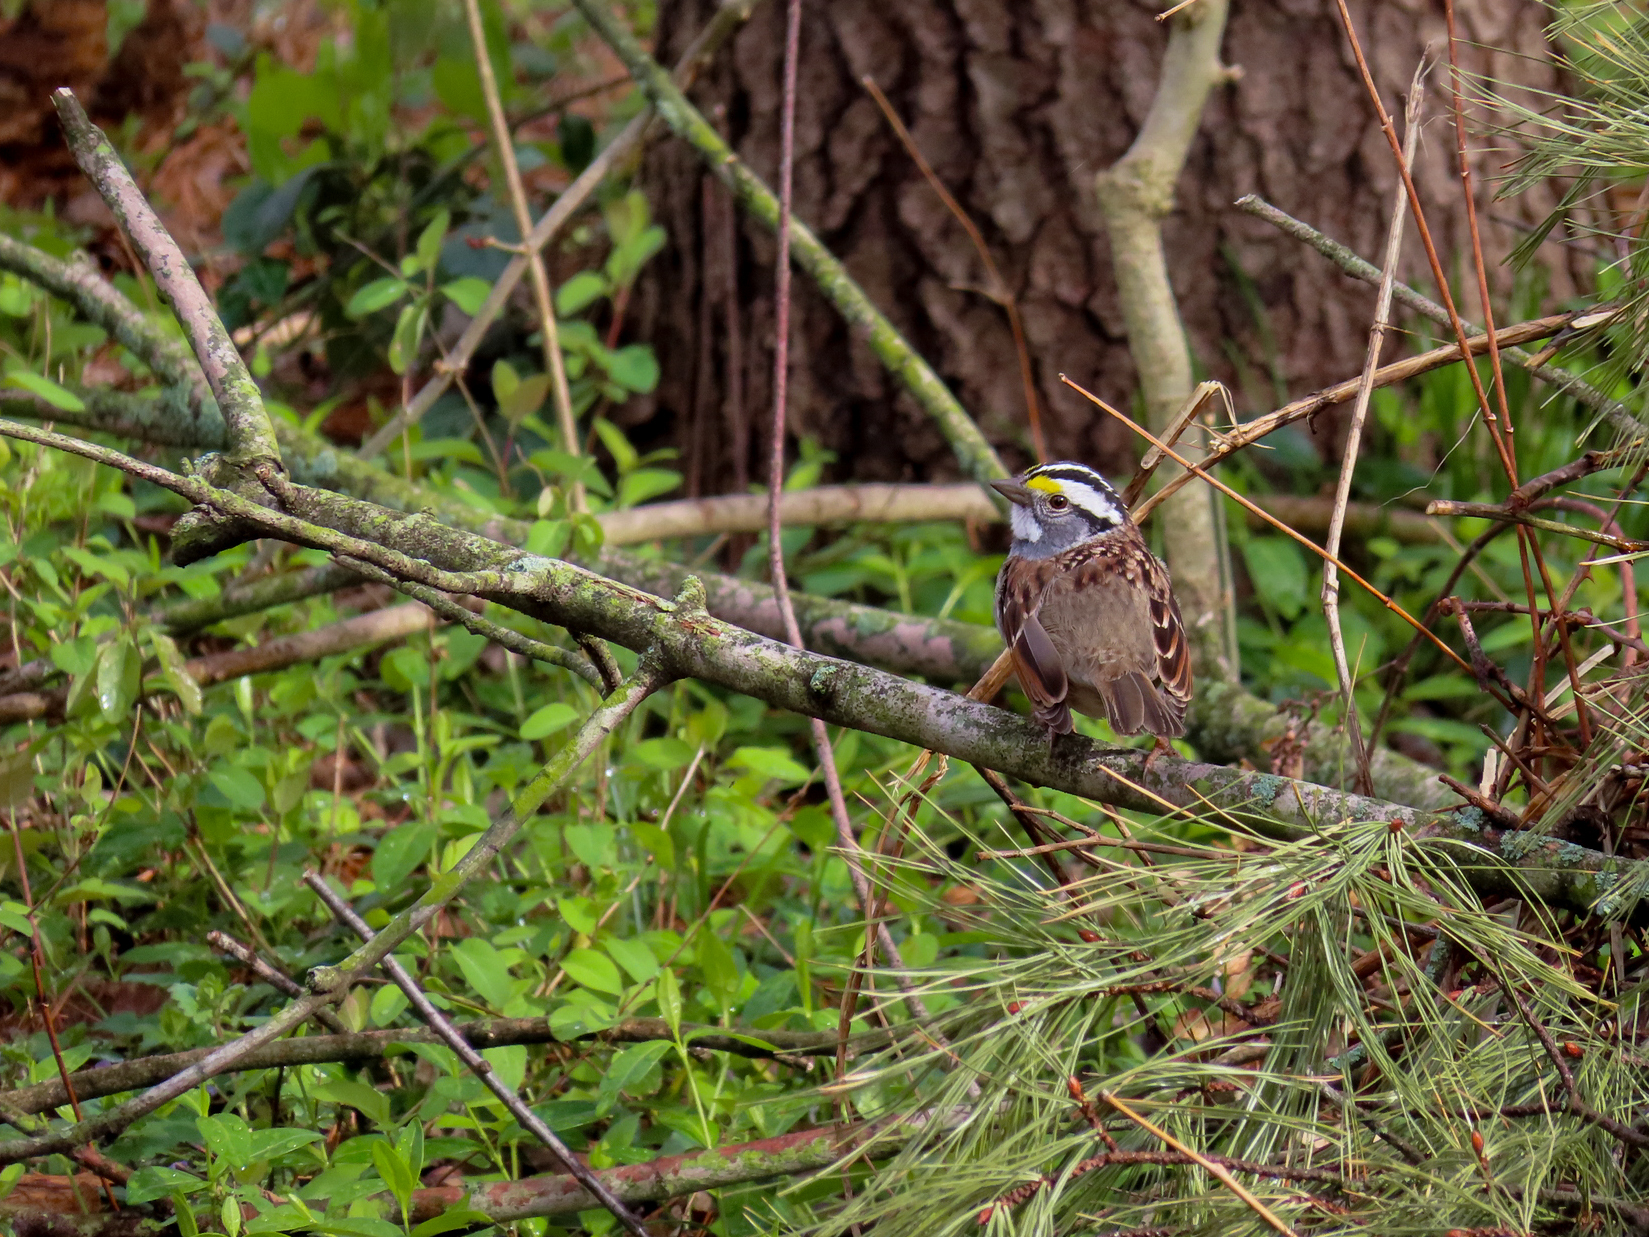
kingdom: Animalia
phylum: Chordata
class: Aves
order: Passeriformes
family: Passerellidae
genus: Zonotrichia
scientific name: Zonotrichia albicollis
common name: White-throated sparrow
